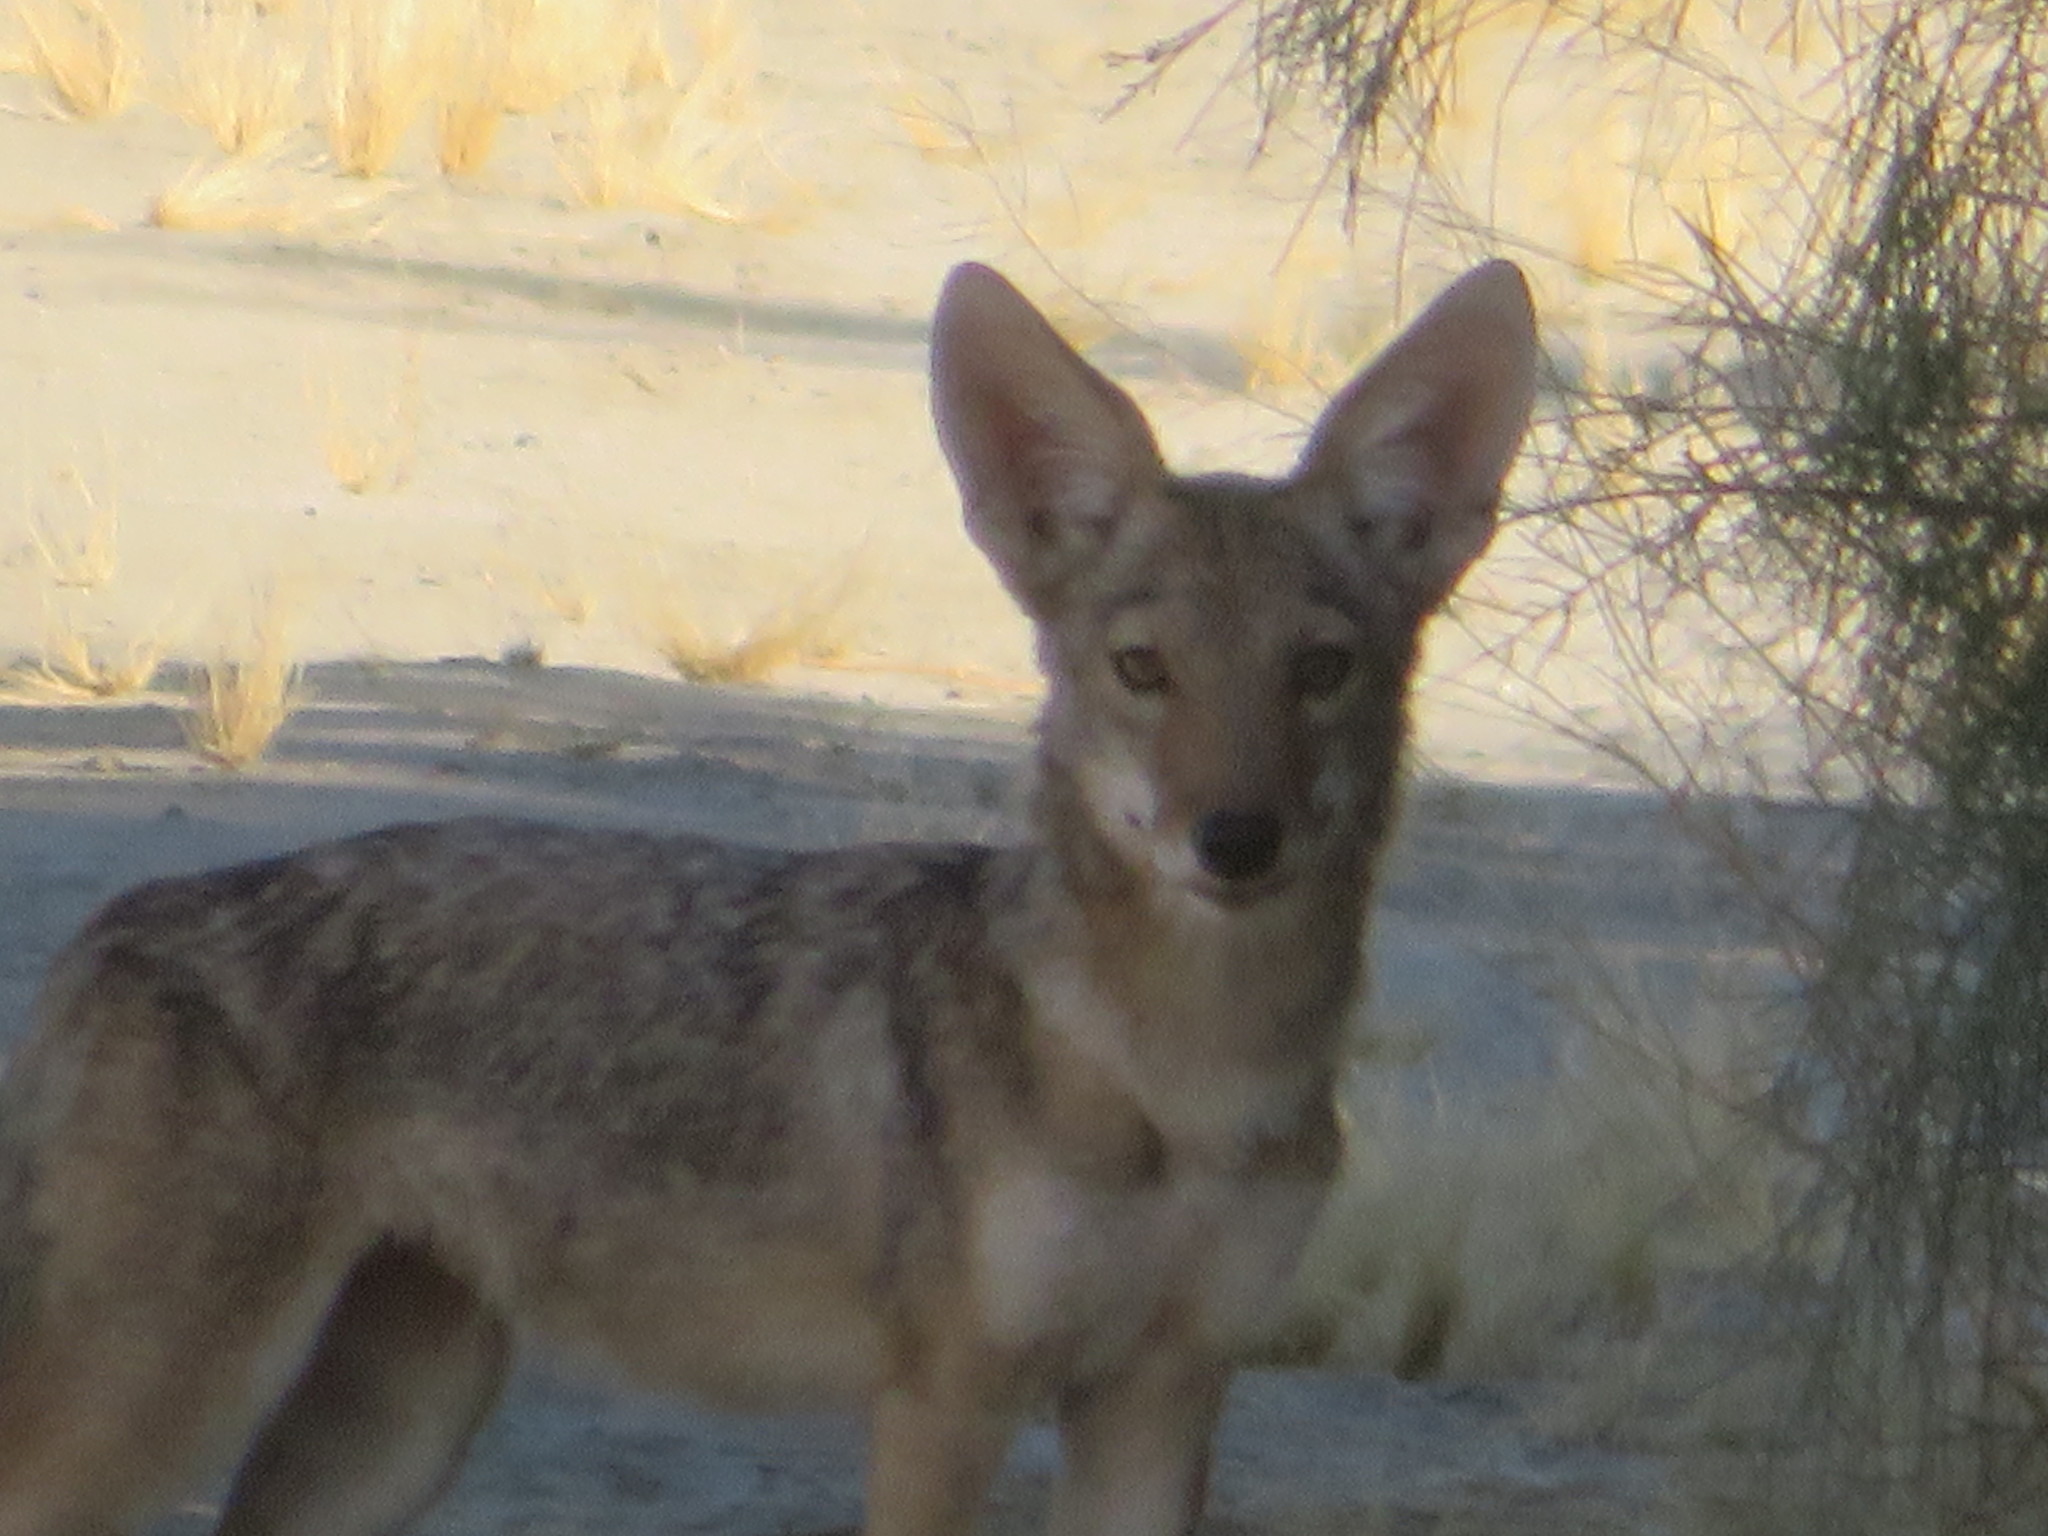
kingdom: Animalia
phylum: Chordata
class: Mammalia
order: Carnivora
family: Canidae
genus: Canis
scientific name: Canis latrans
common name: Coyote
